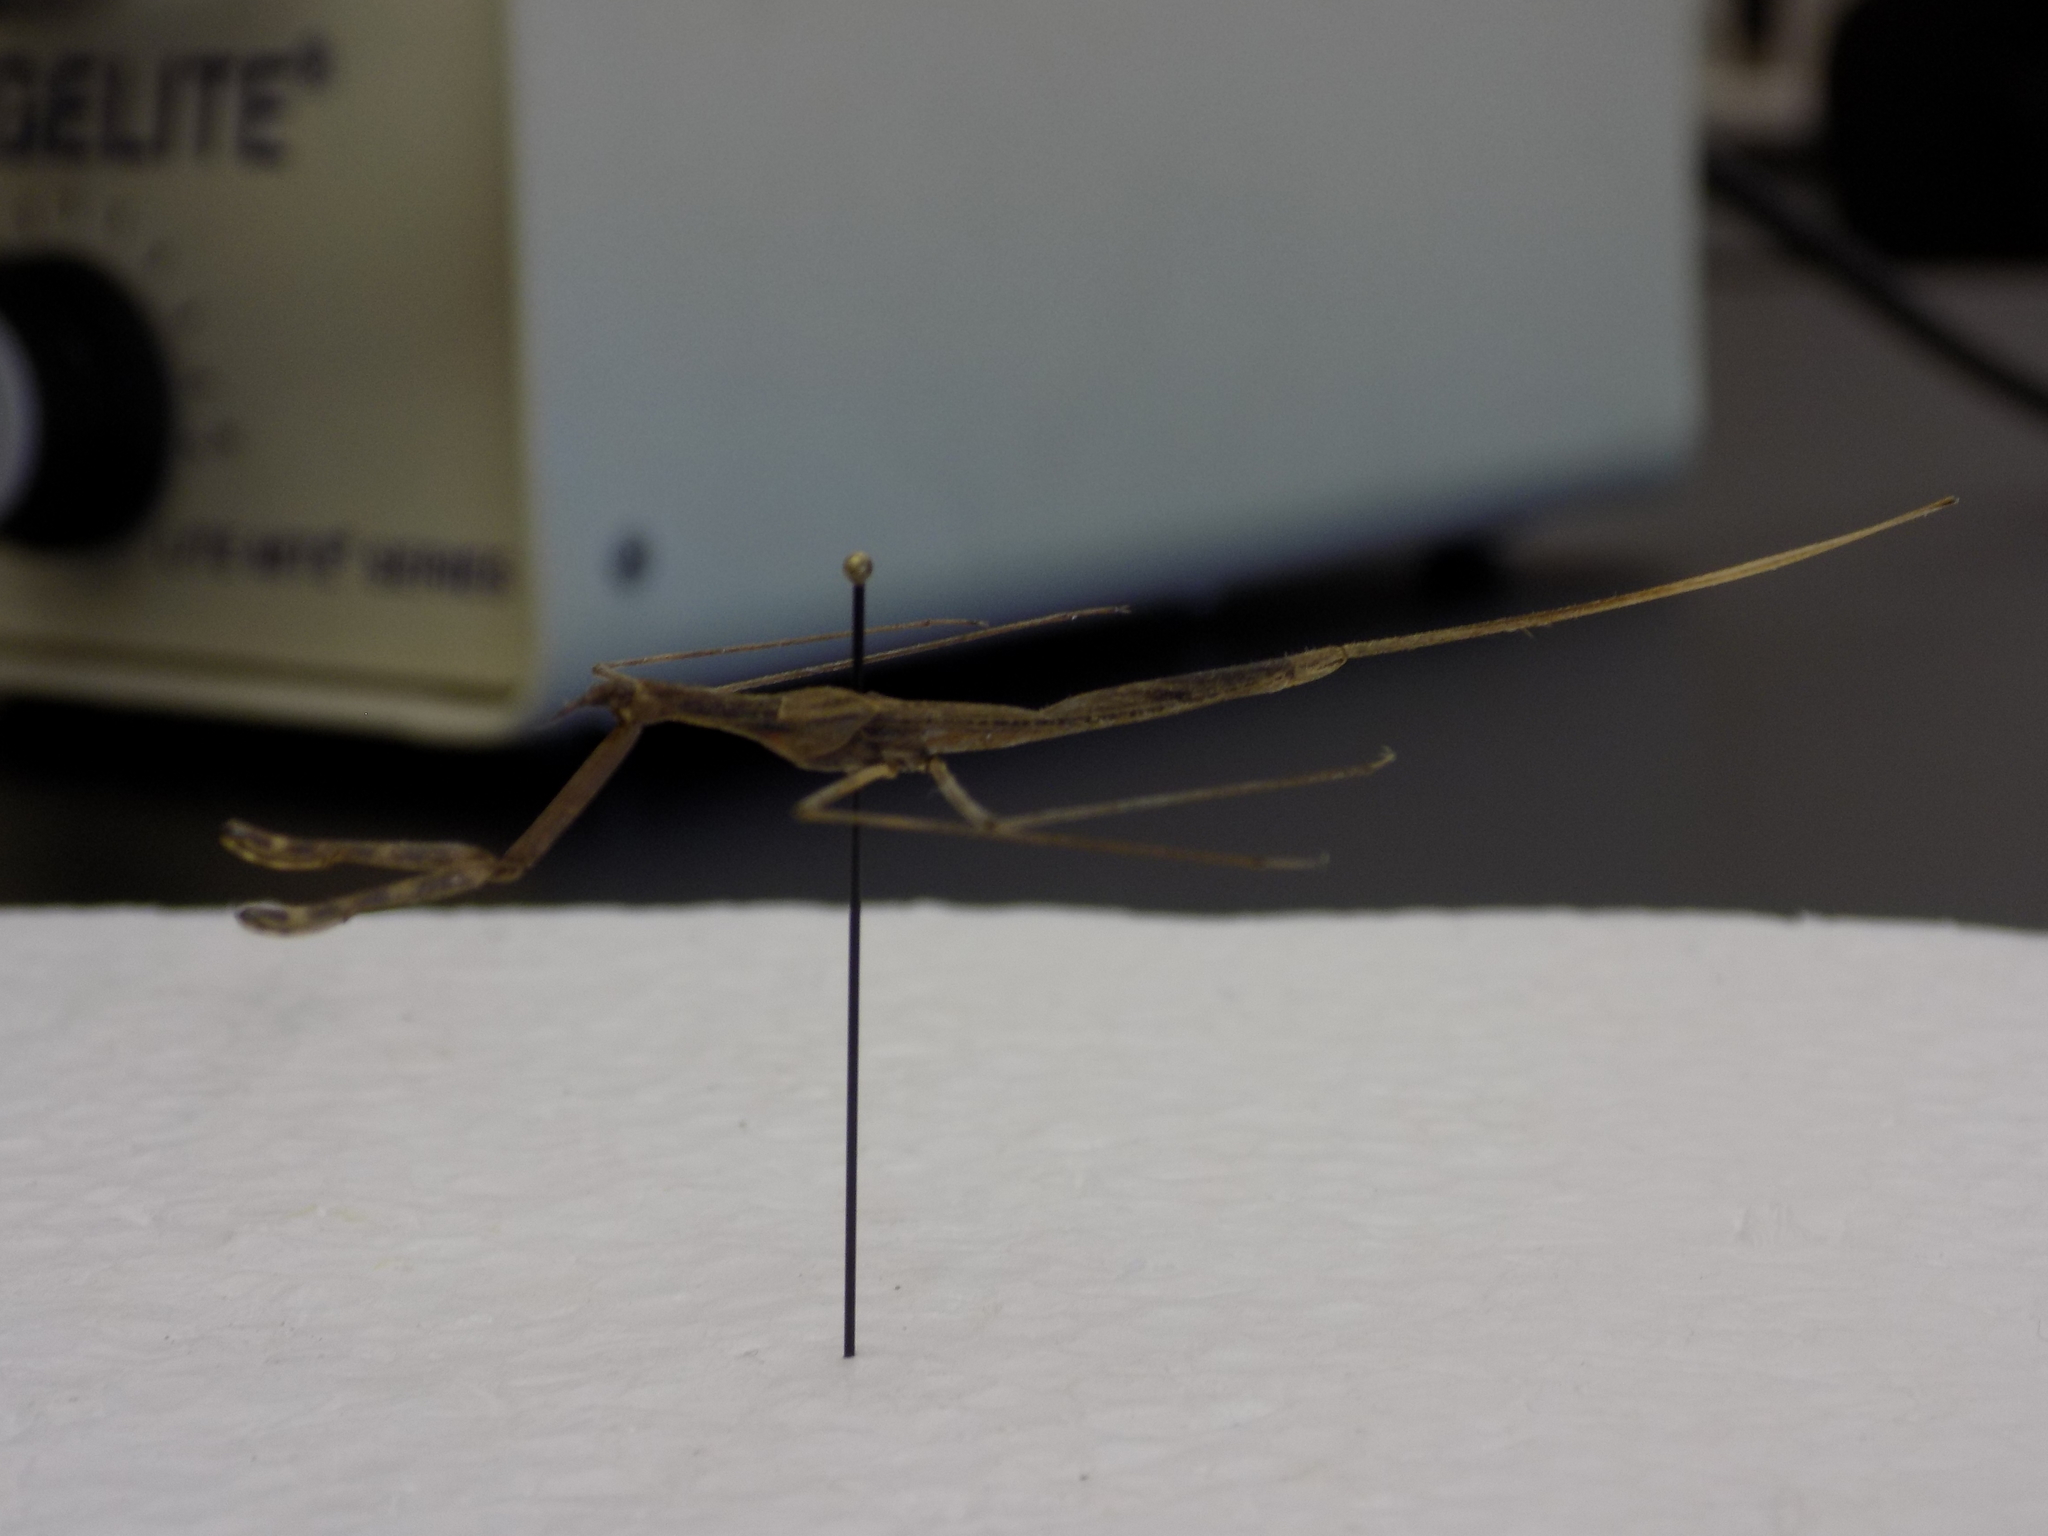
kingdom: Animalia
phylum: Arthropoda
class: Insecta
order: Hemiptera
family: Nepidae
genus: Ranatra
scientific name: Ranatra
